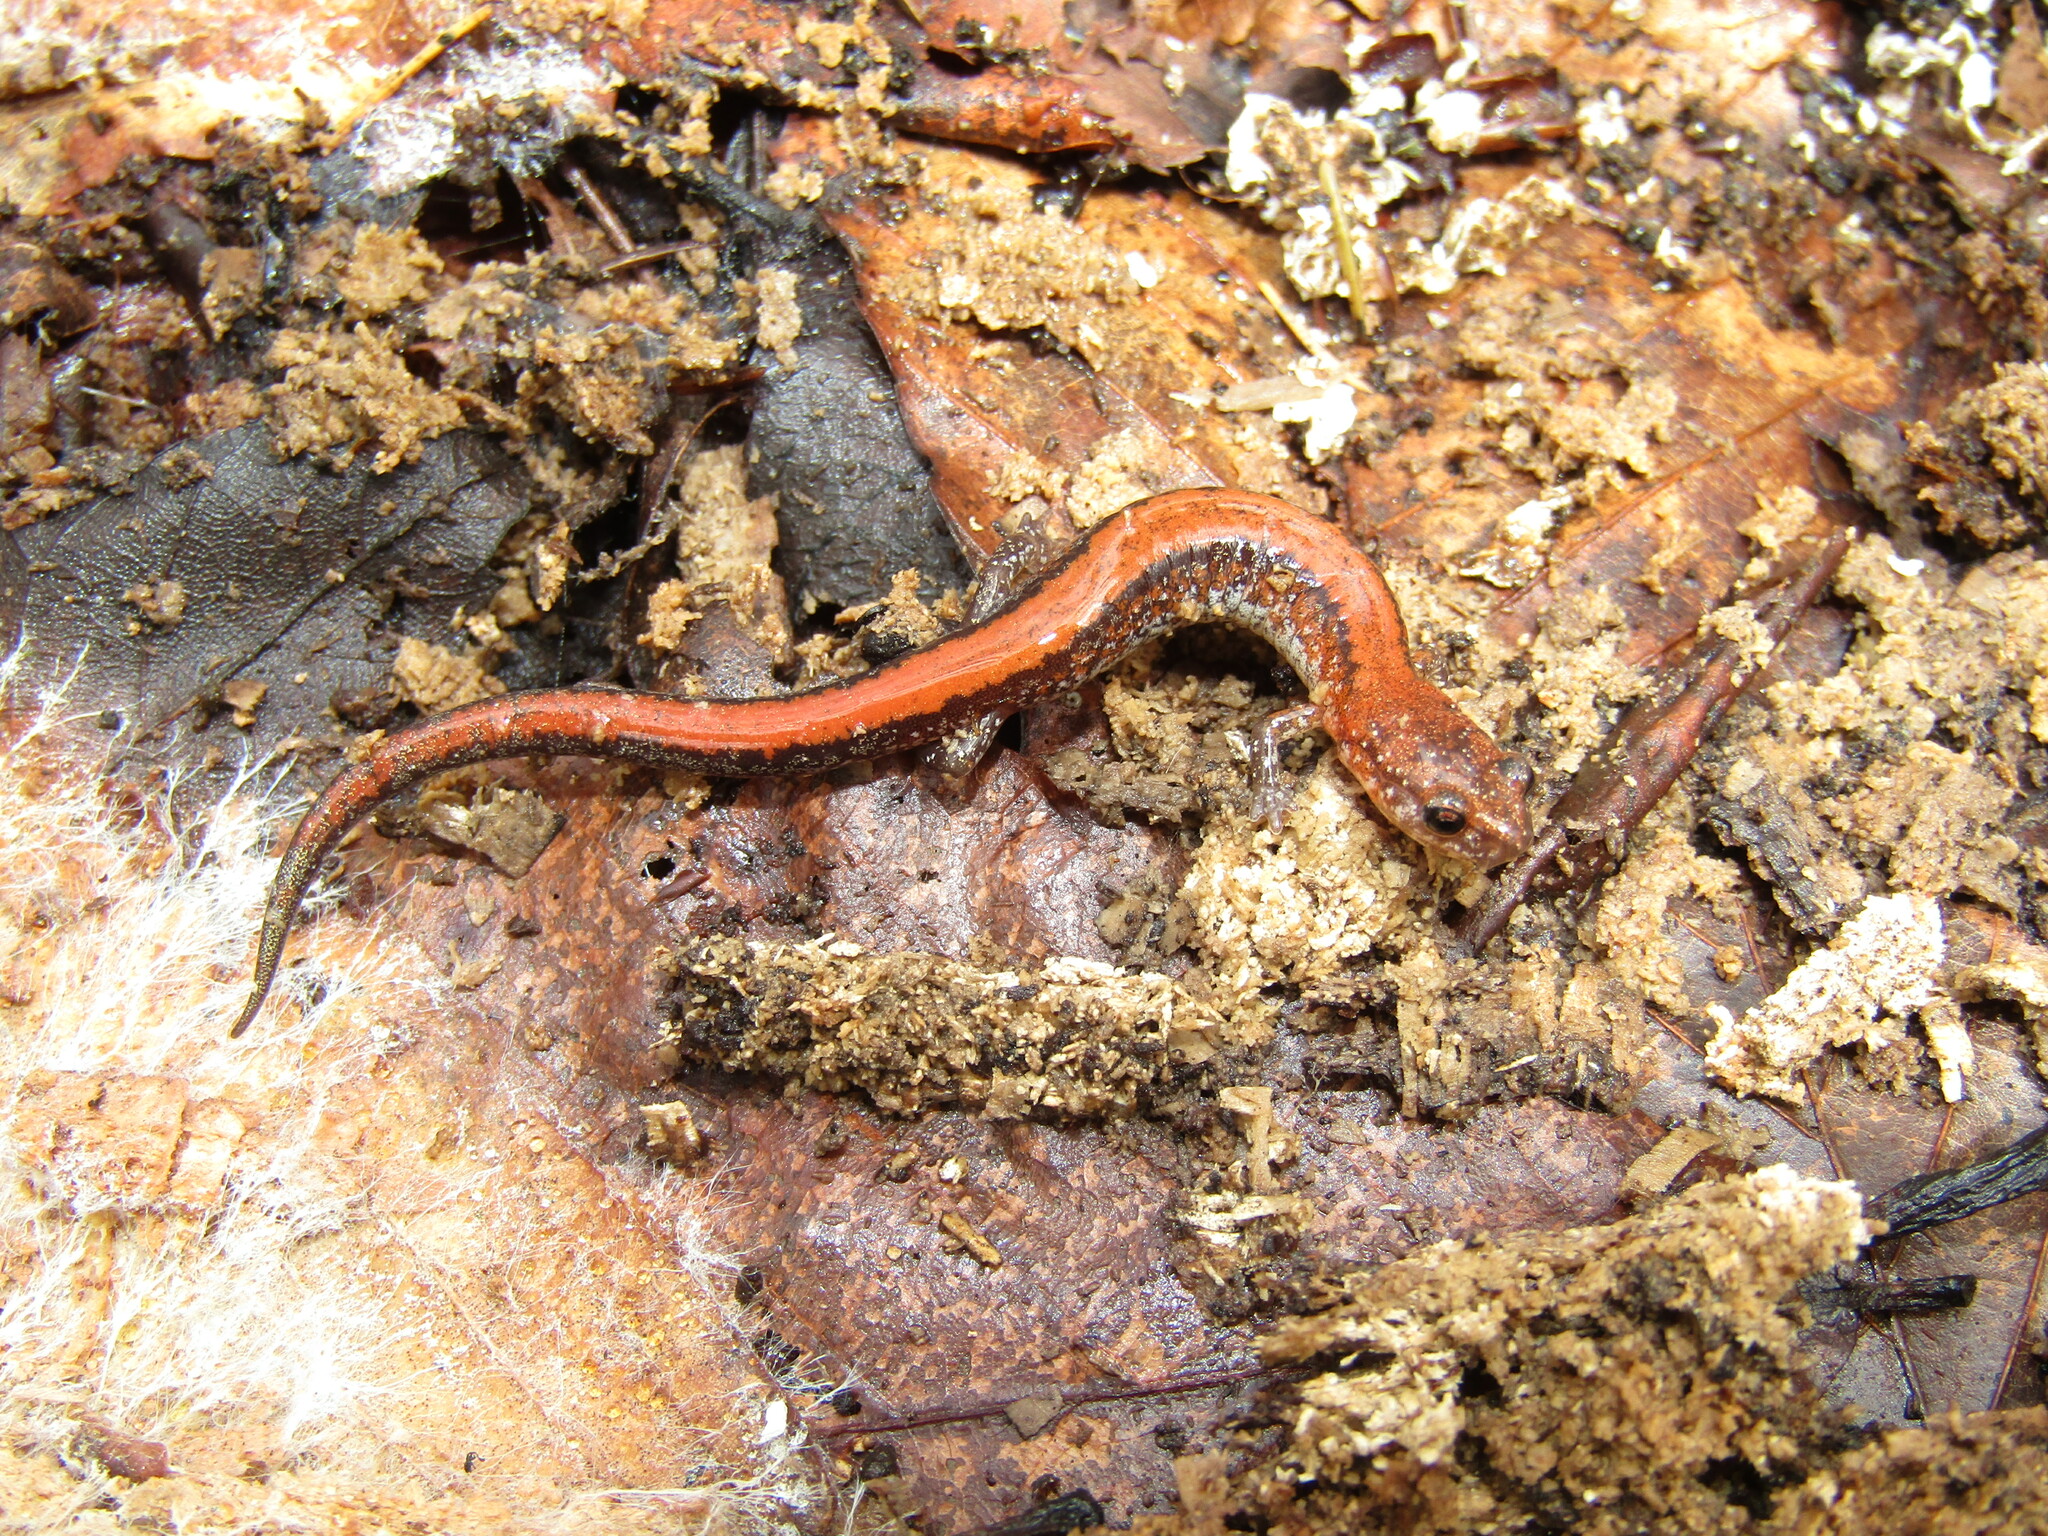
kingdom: Animalia
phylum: Chordata
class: Amphibia
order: Caudata
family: Plethodontidae
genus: Plethodon
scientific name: Plethodon cinereus
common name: Redback salamander
